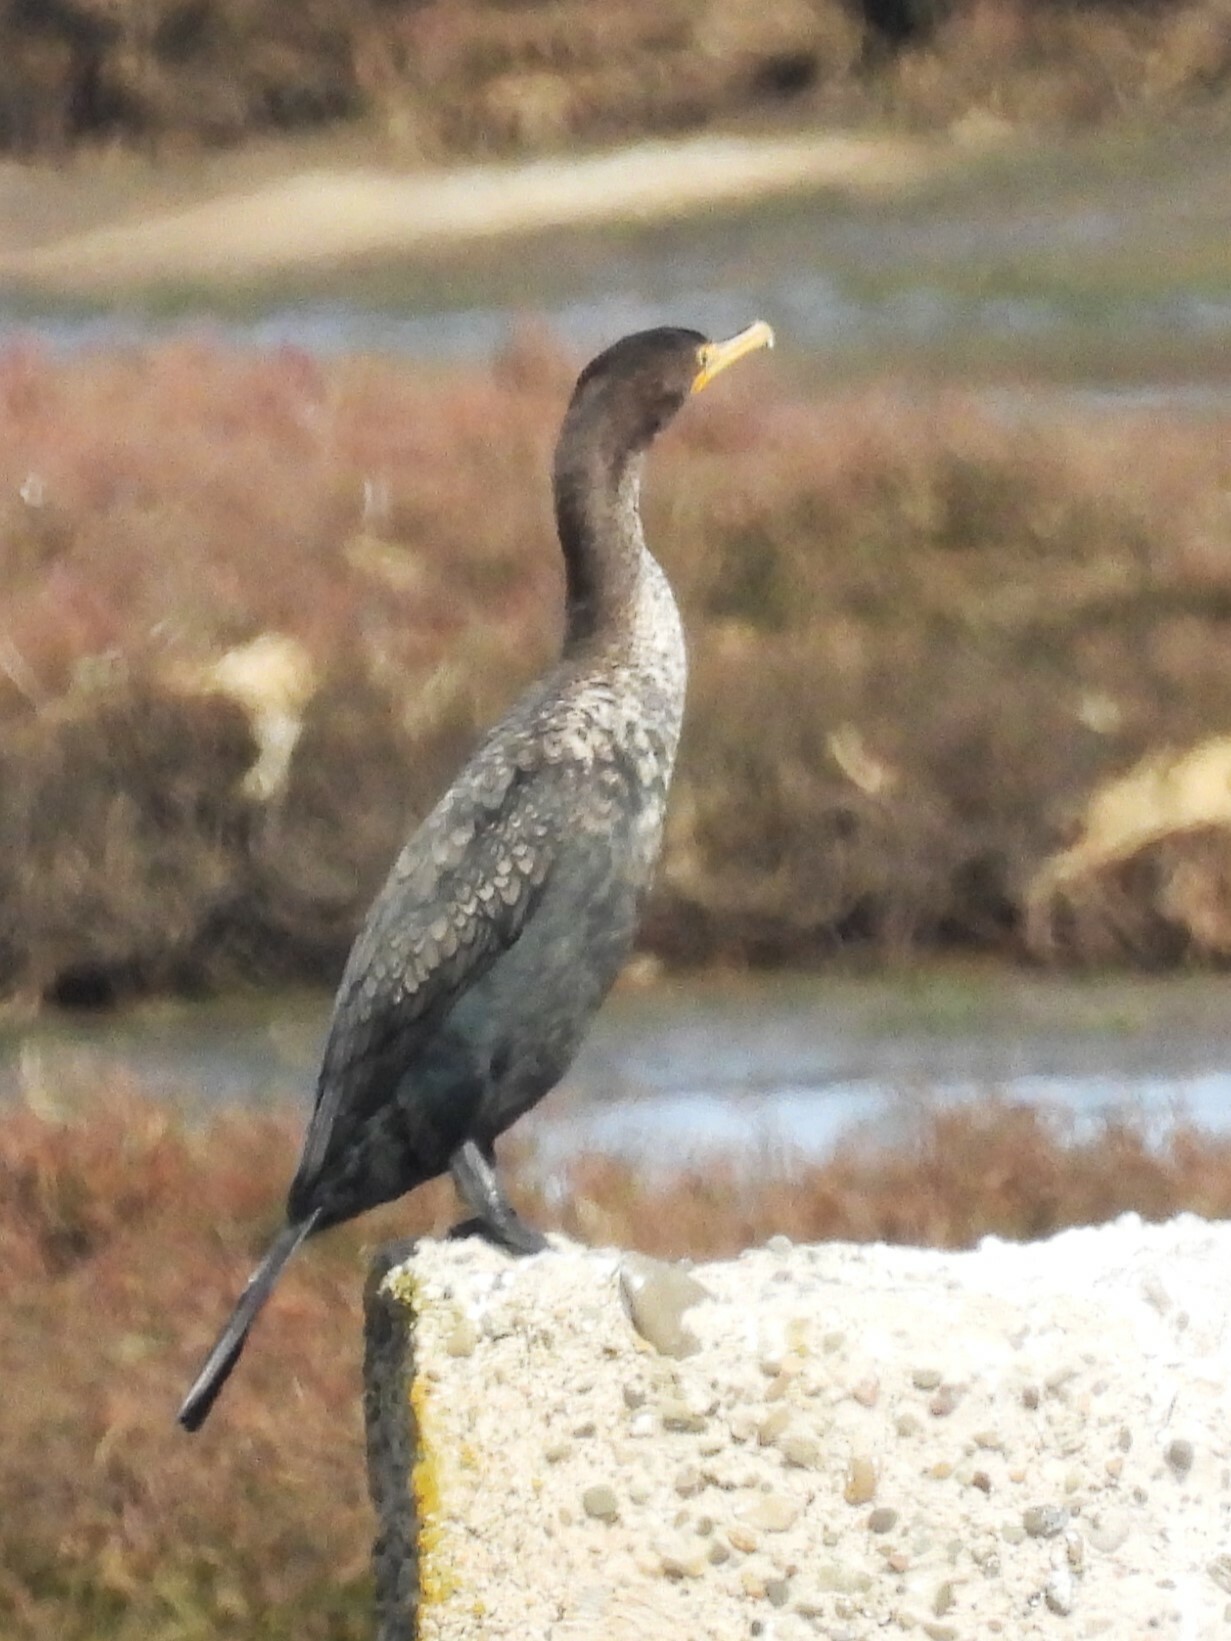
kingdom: Animalia
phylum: Chordata
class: Aves
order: Suliformes
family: Phalacrocoracidae
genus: Phalacrocorax
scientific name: Phalacrocorax auritus
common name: Double-crested cormorant
